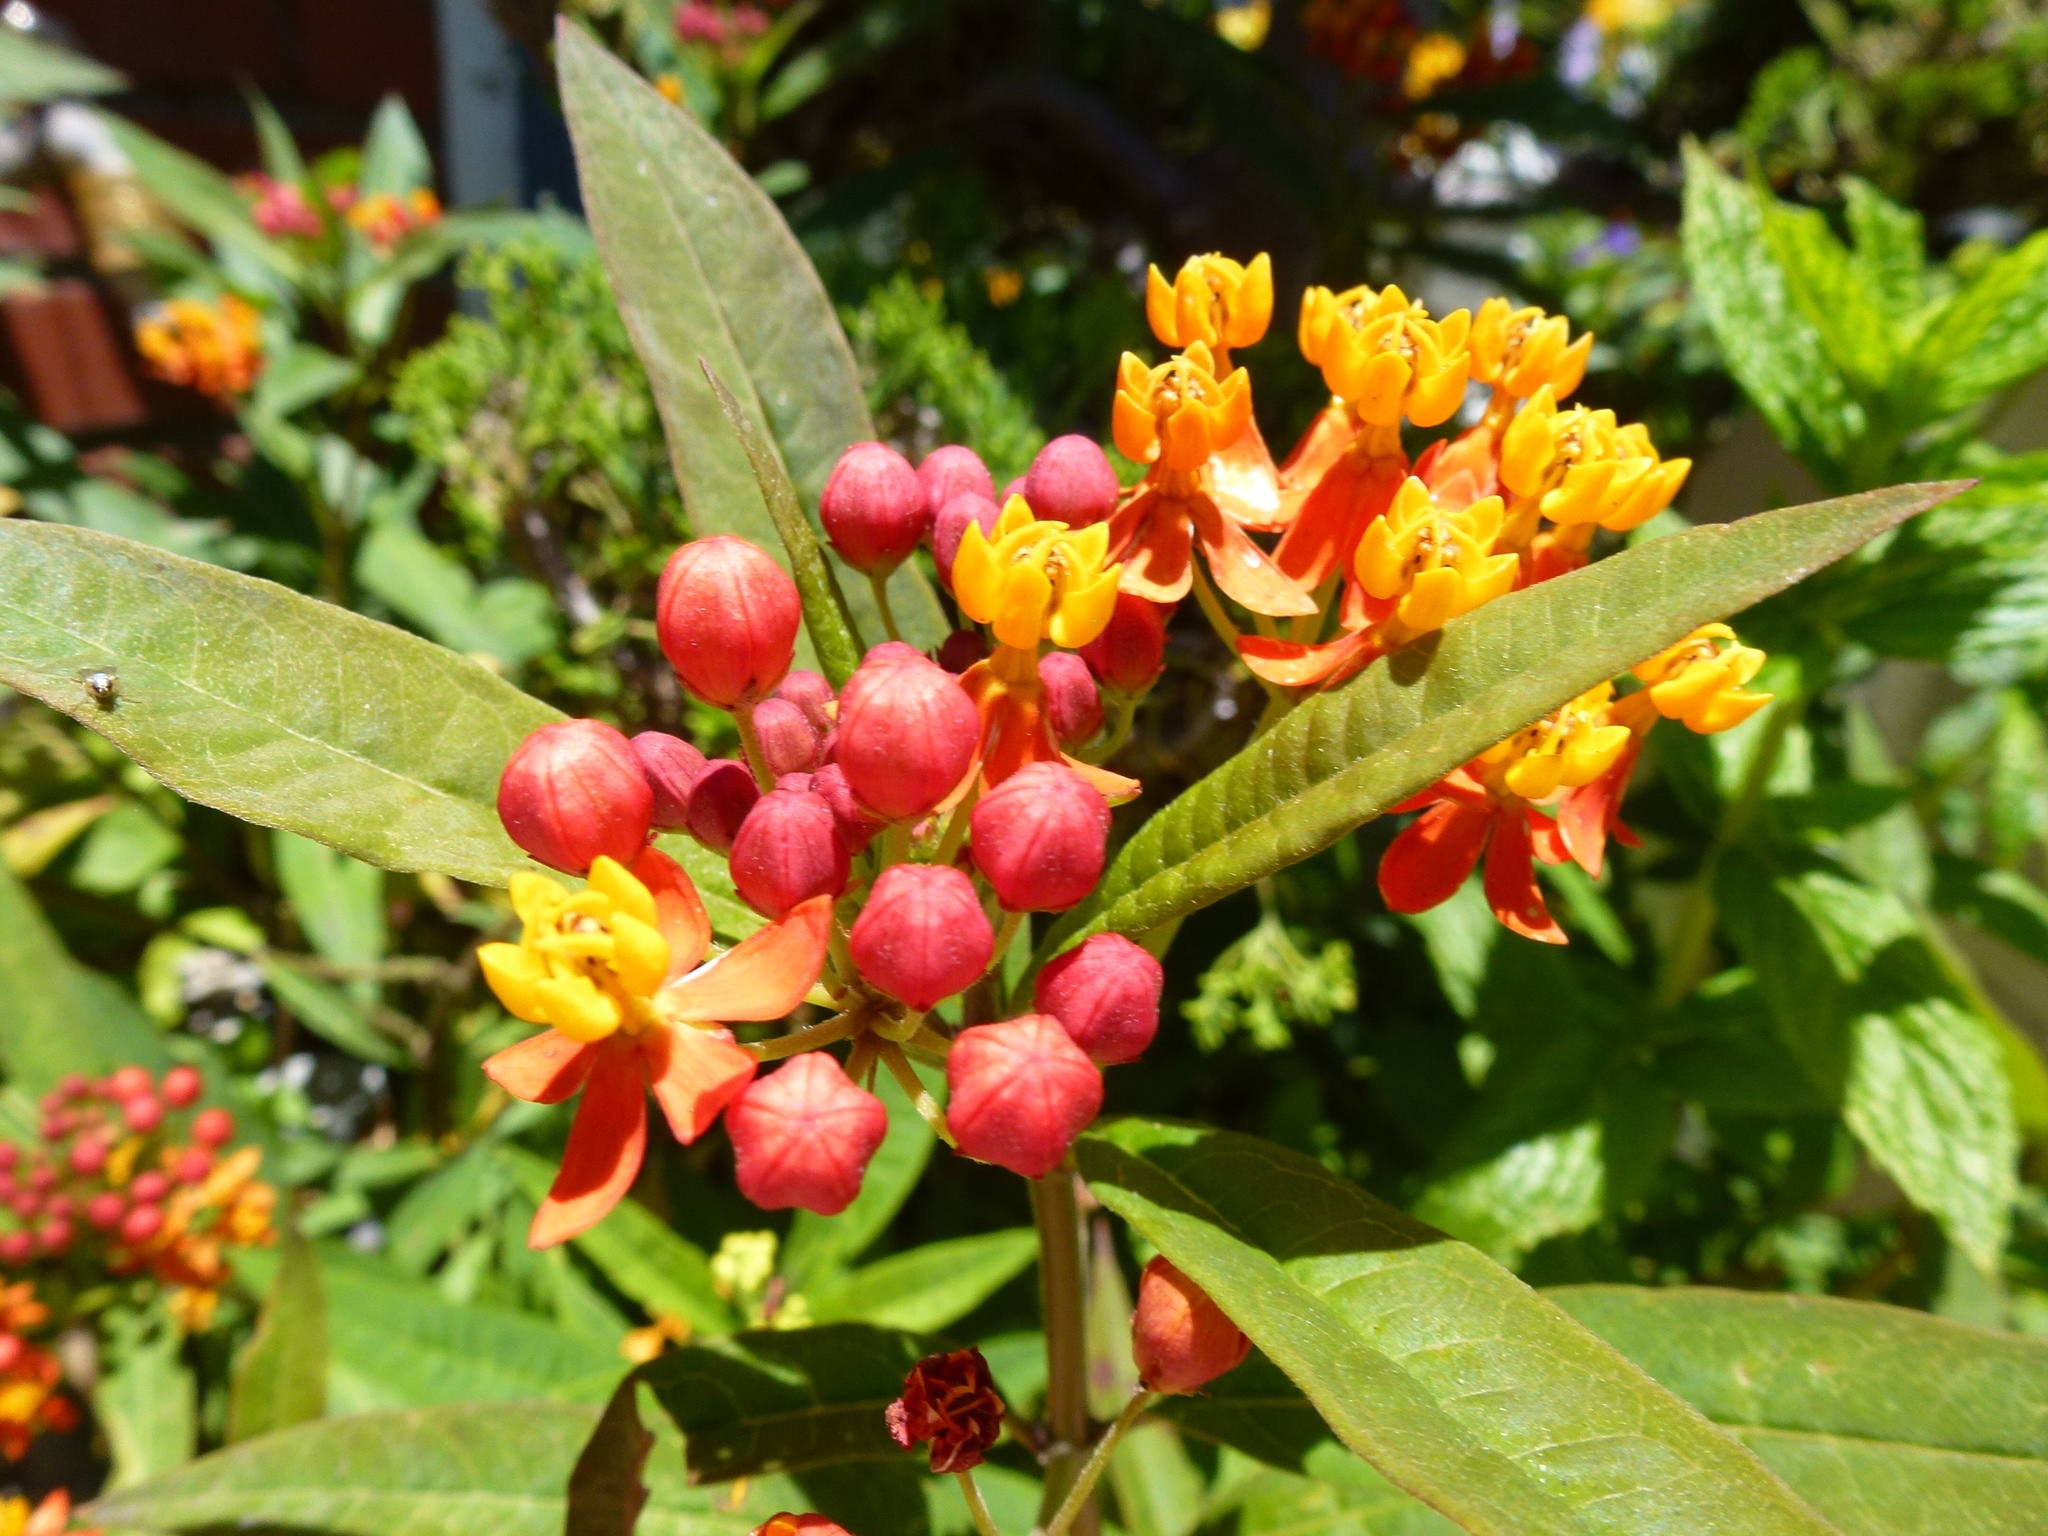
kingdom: Plantae
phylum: Tracheophyta
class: Magnoliopsida
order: Gentianales
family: Apocynaceae
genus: Asclepias
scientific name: Asclepias curassavica
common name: Bloodflower
